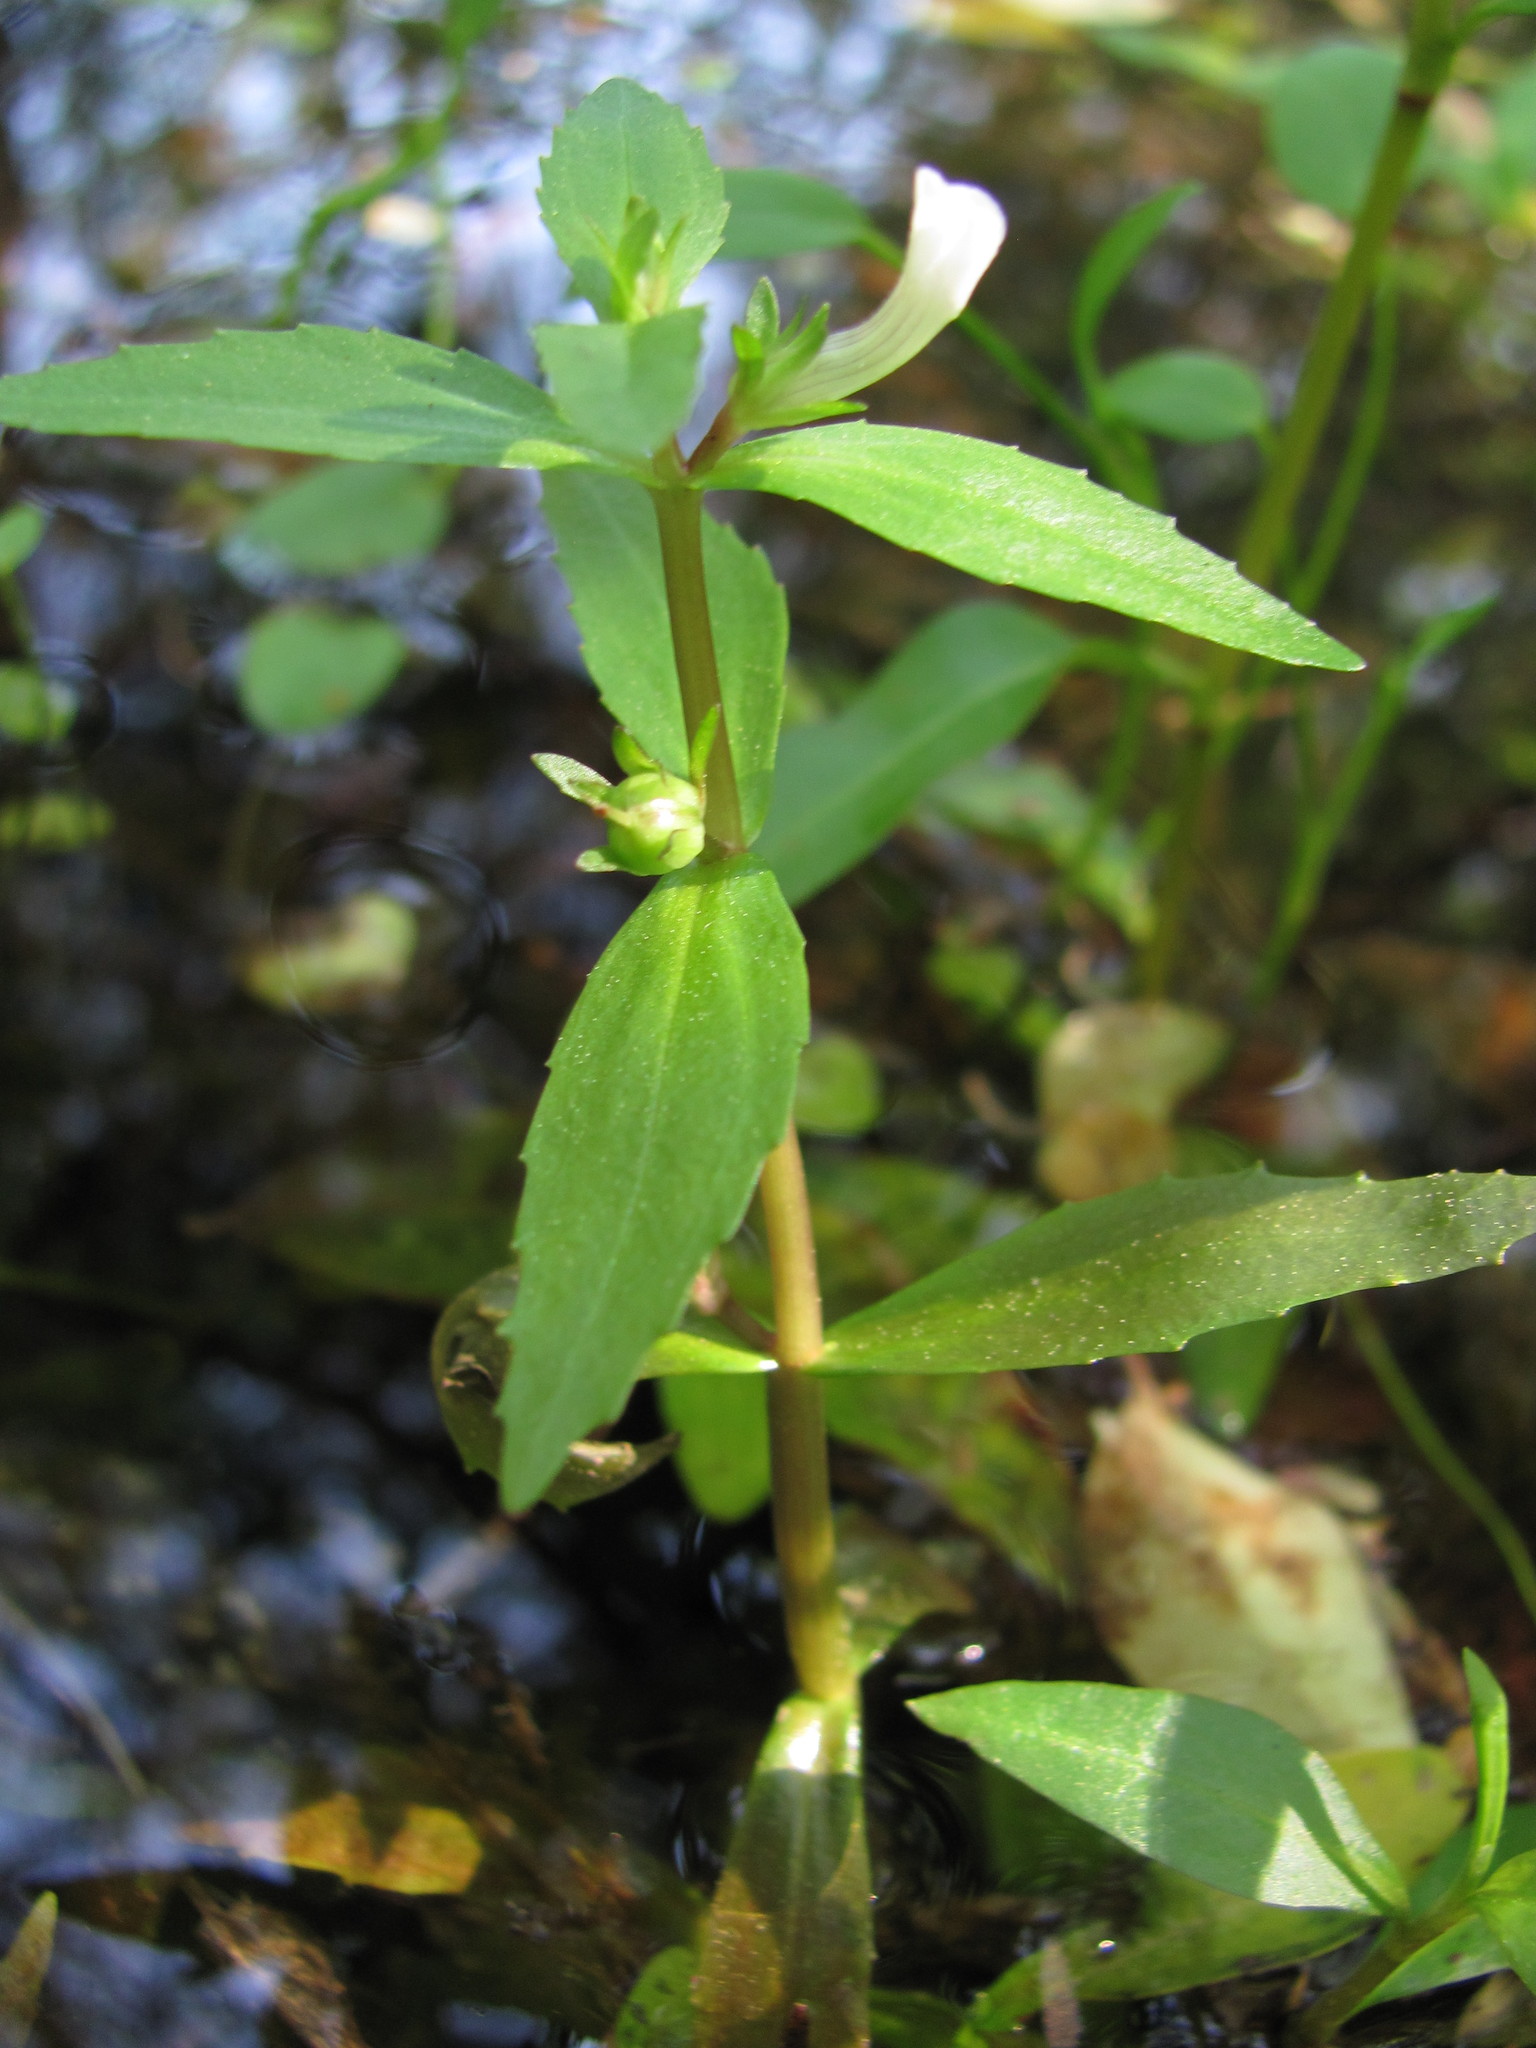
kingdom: Plantae
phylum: Tracheophyta
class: Magnoliopsida
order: Lamiales
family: Plantaginaceae
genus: Gratiola
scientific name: Gratiola virginiana
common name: Roundfruit hedgehyssop
